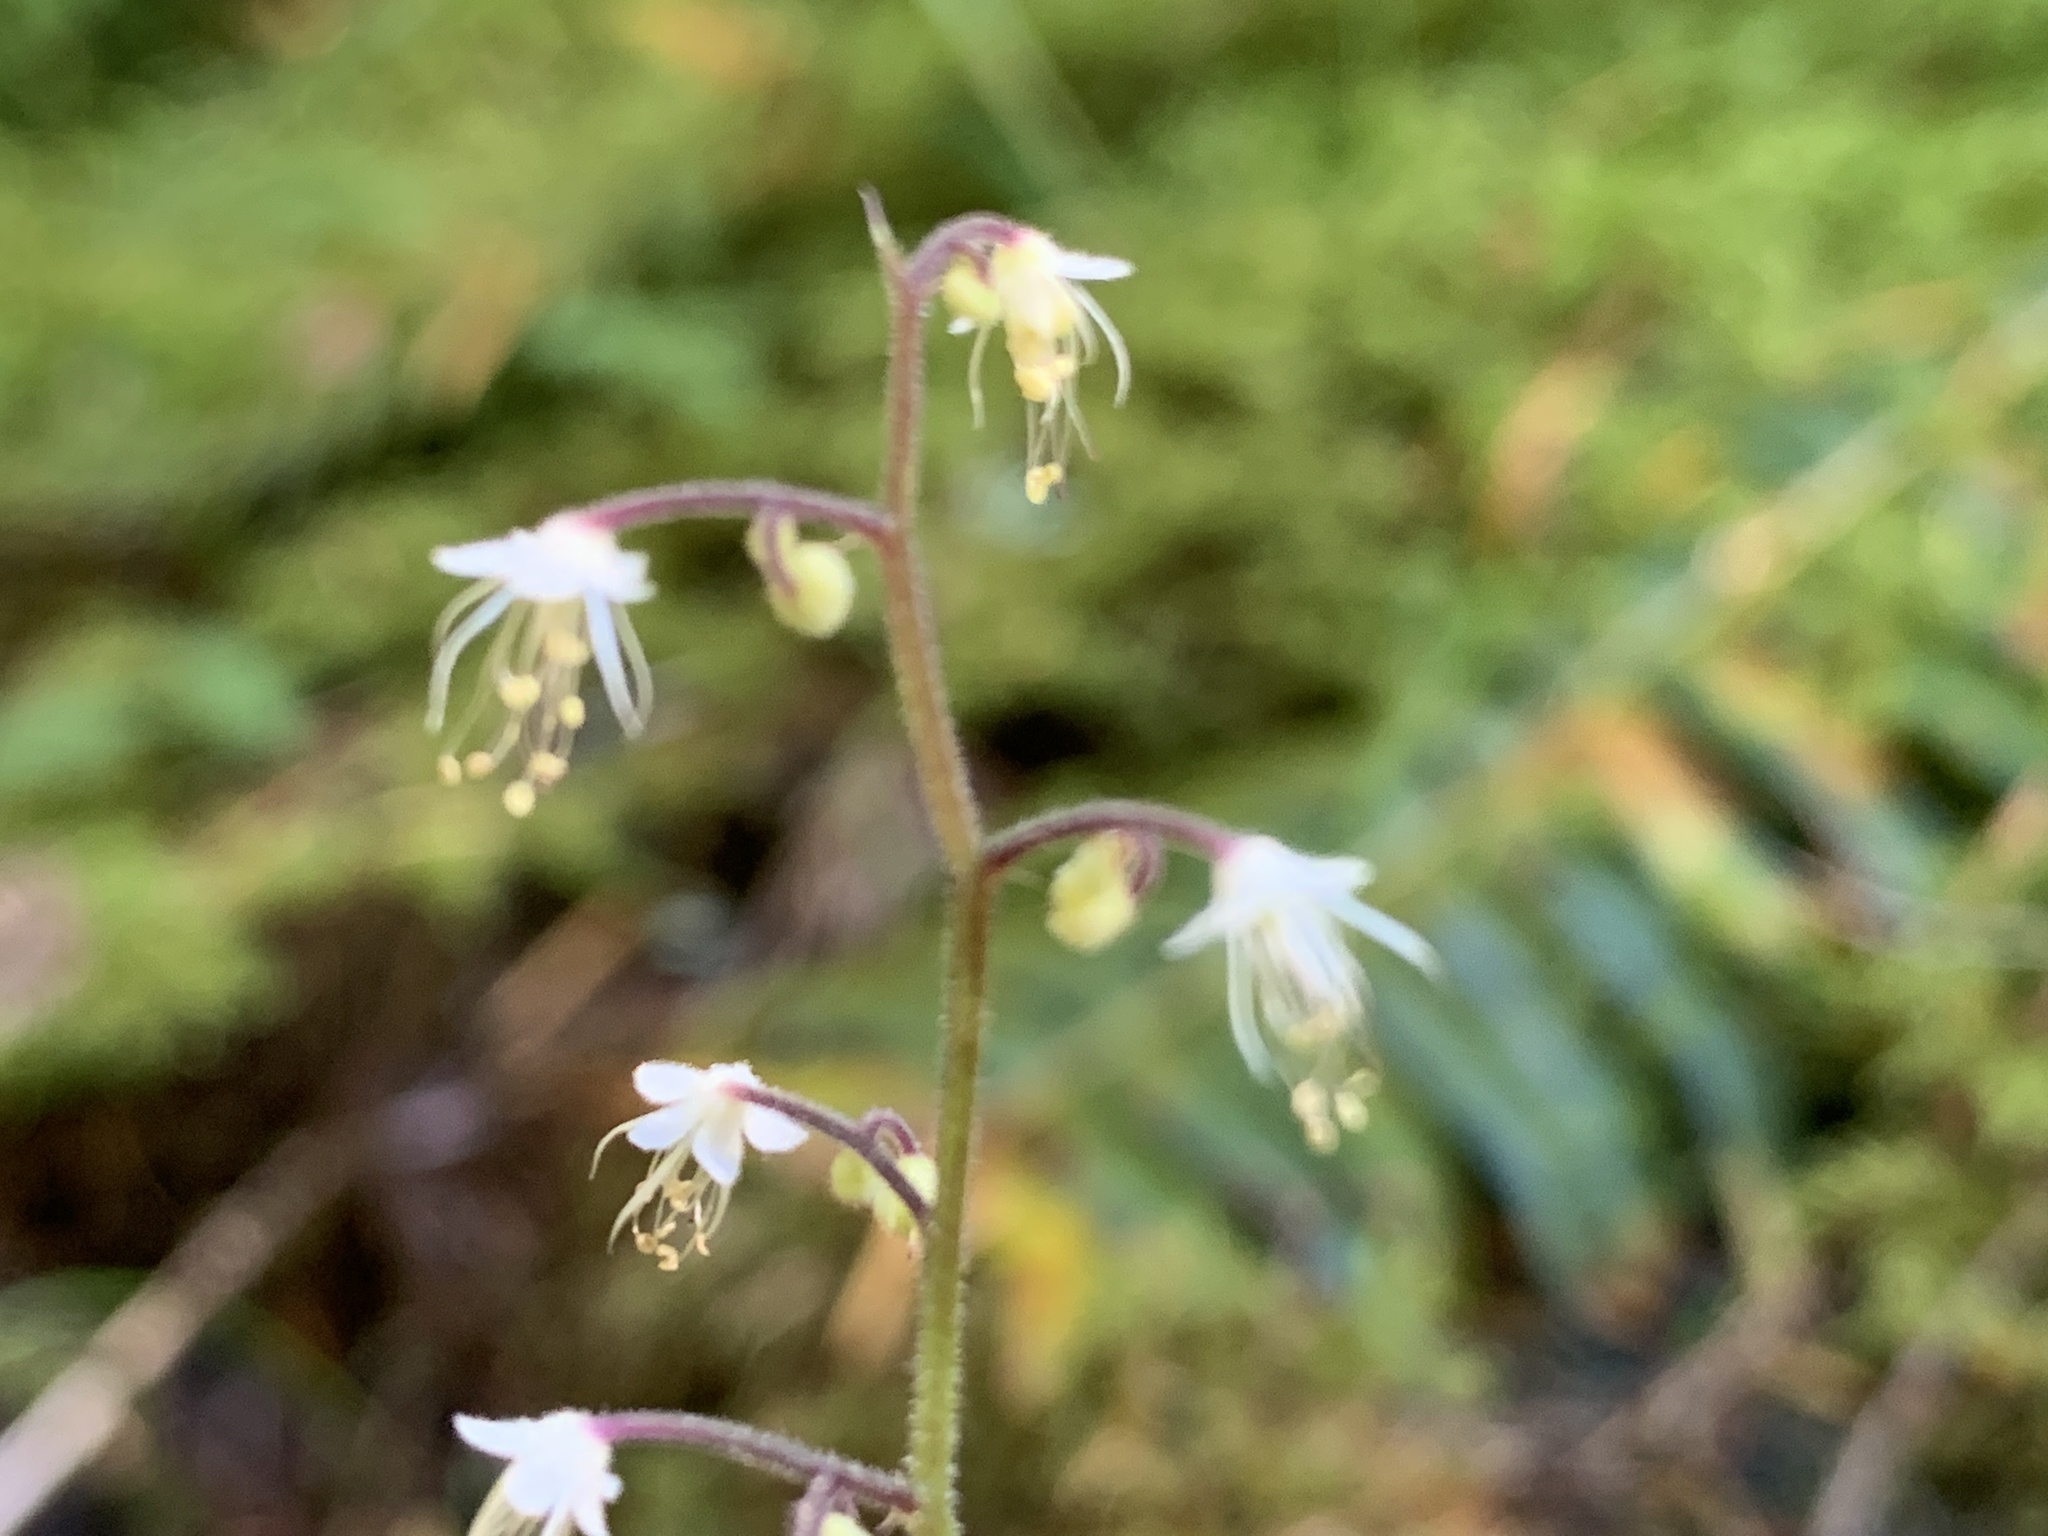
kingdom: Plantae
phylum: Tracheophyta
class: Magnoliopsida
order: Saxifragales
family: Saxifragaceae
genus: Tiarella
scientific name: Tiarella trifoliata
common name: Sugar-scoop
